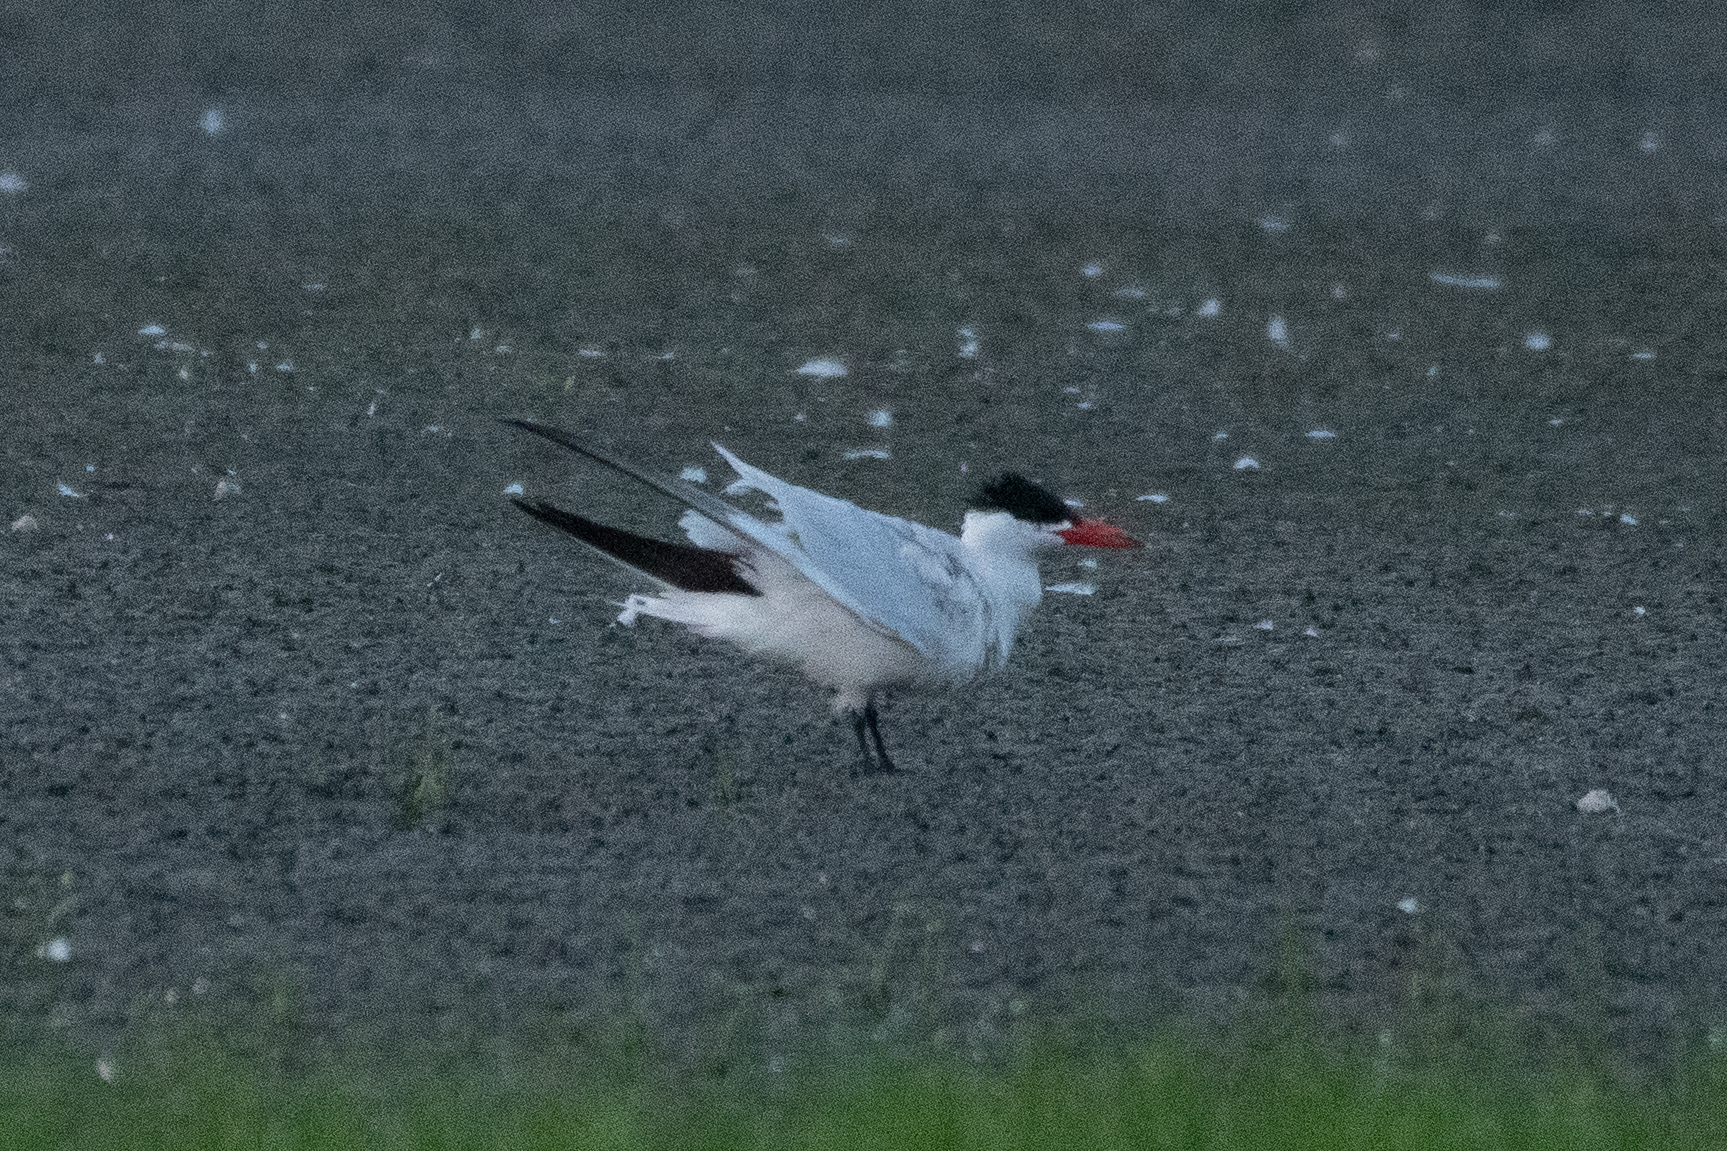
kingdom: Animalia
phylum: Chordata
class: Aves
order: Charadriiformes
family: Laridae
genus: Hydroprogne
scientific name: Hydroprogne caspia
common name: Caspian tern
